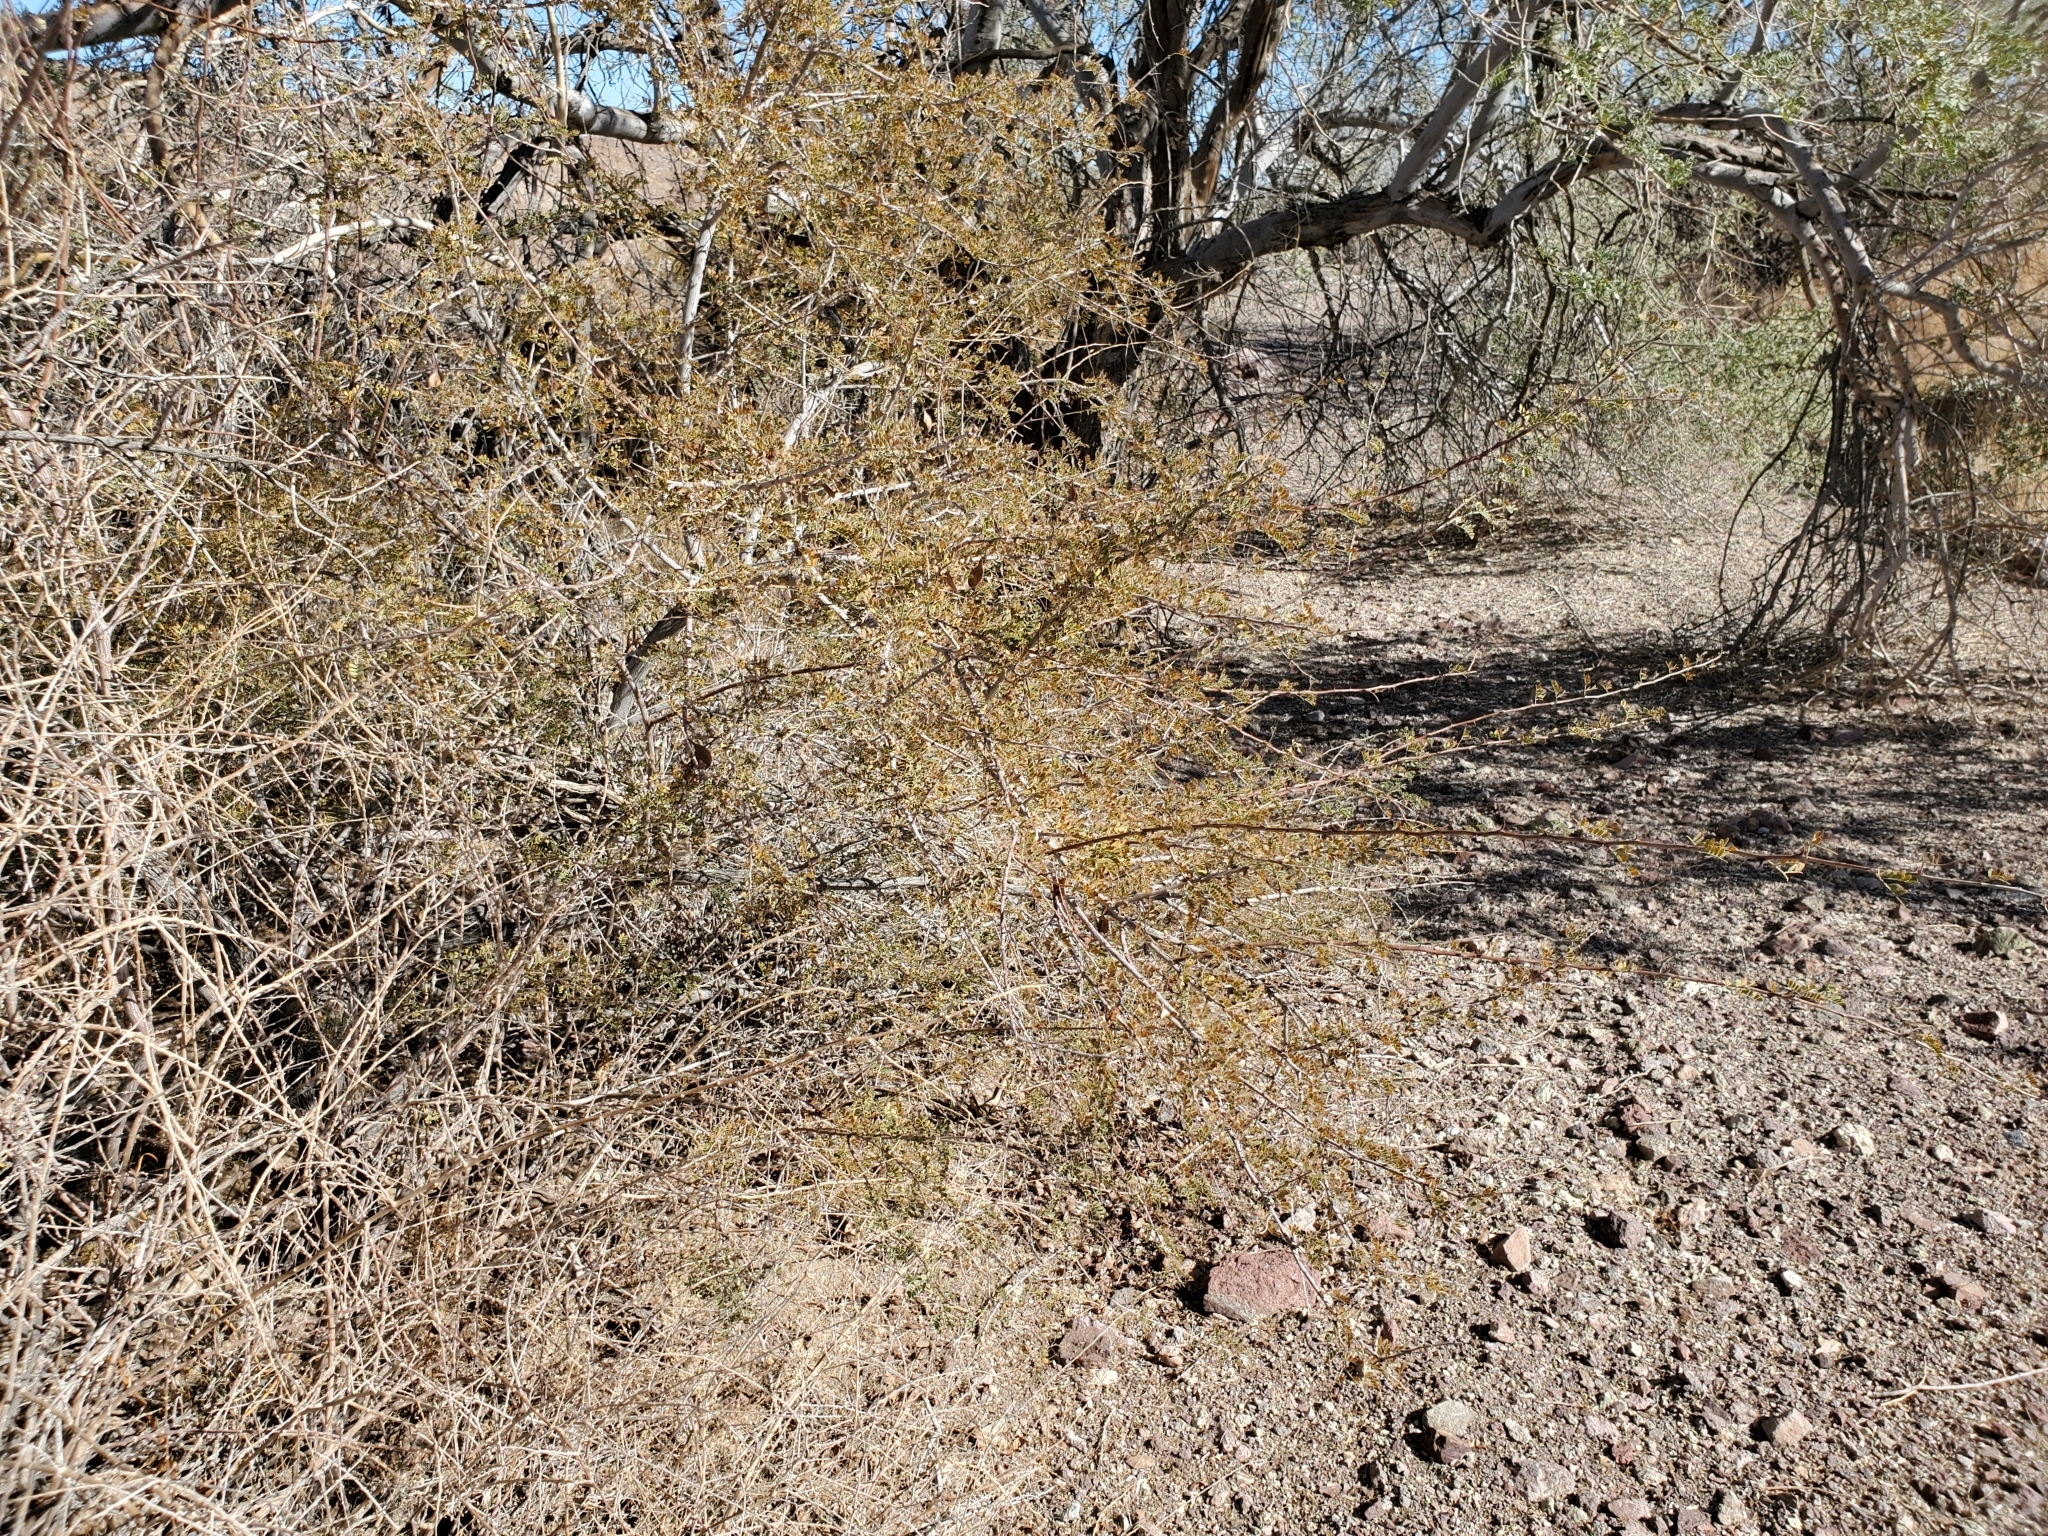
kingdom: Plantae
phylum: Tracheophyta
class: Magnoliopsida
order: Fabales
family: Fabaceae
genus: Senegalia
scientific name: Senegalia greggii
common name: Texas-mimosa
